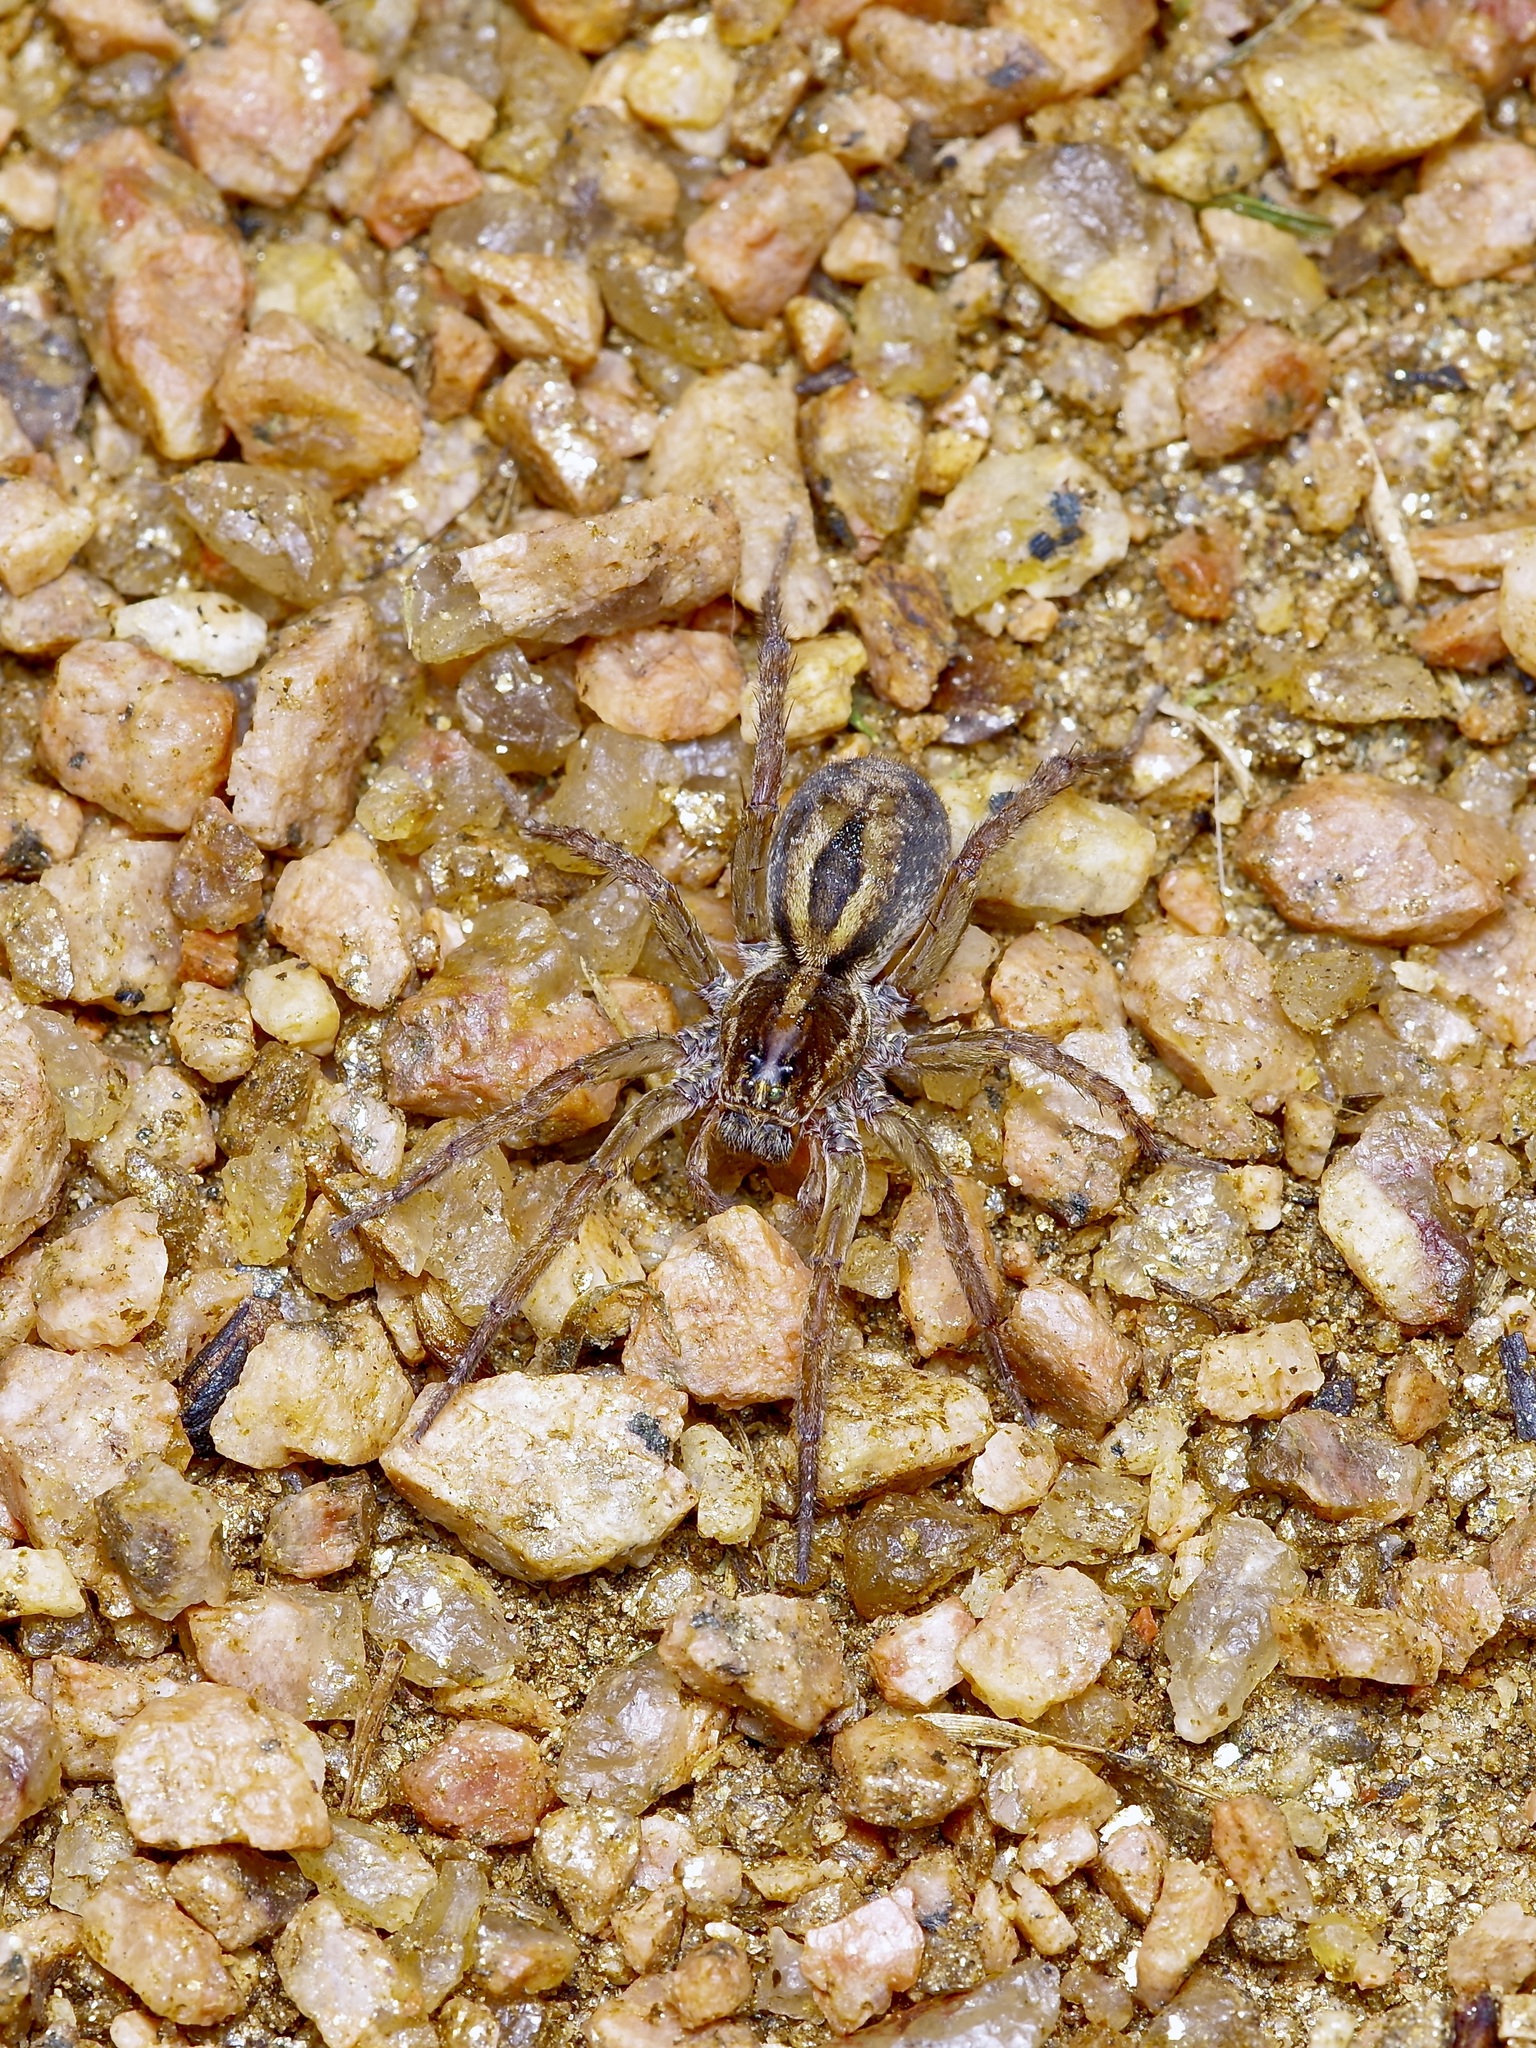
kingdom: Animalia
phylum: Arthropoda
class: Arachnida
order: Araneae
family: Lycosidae
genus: Tigrosa
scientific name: Tigrosa annexa
